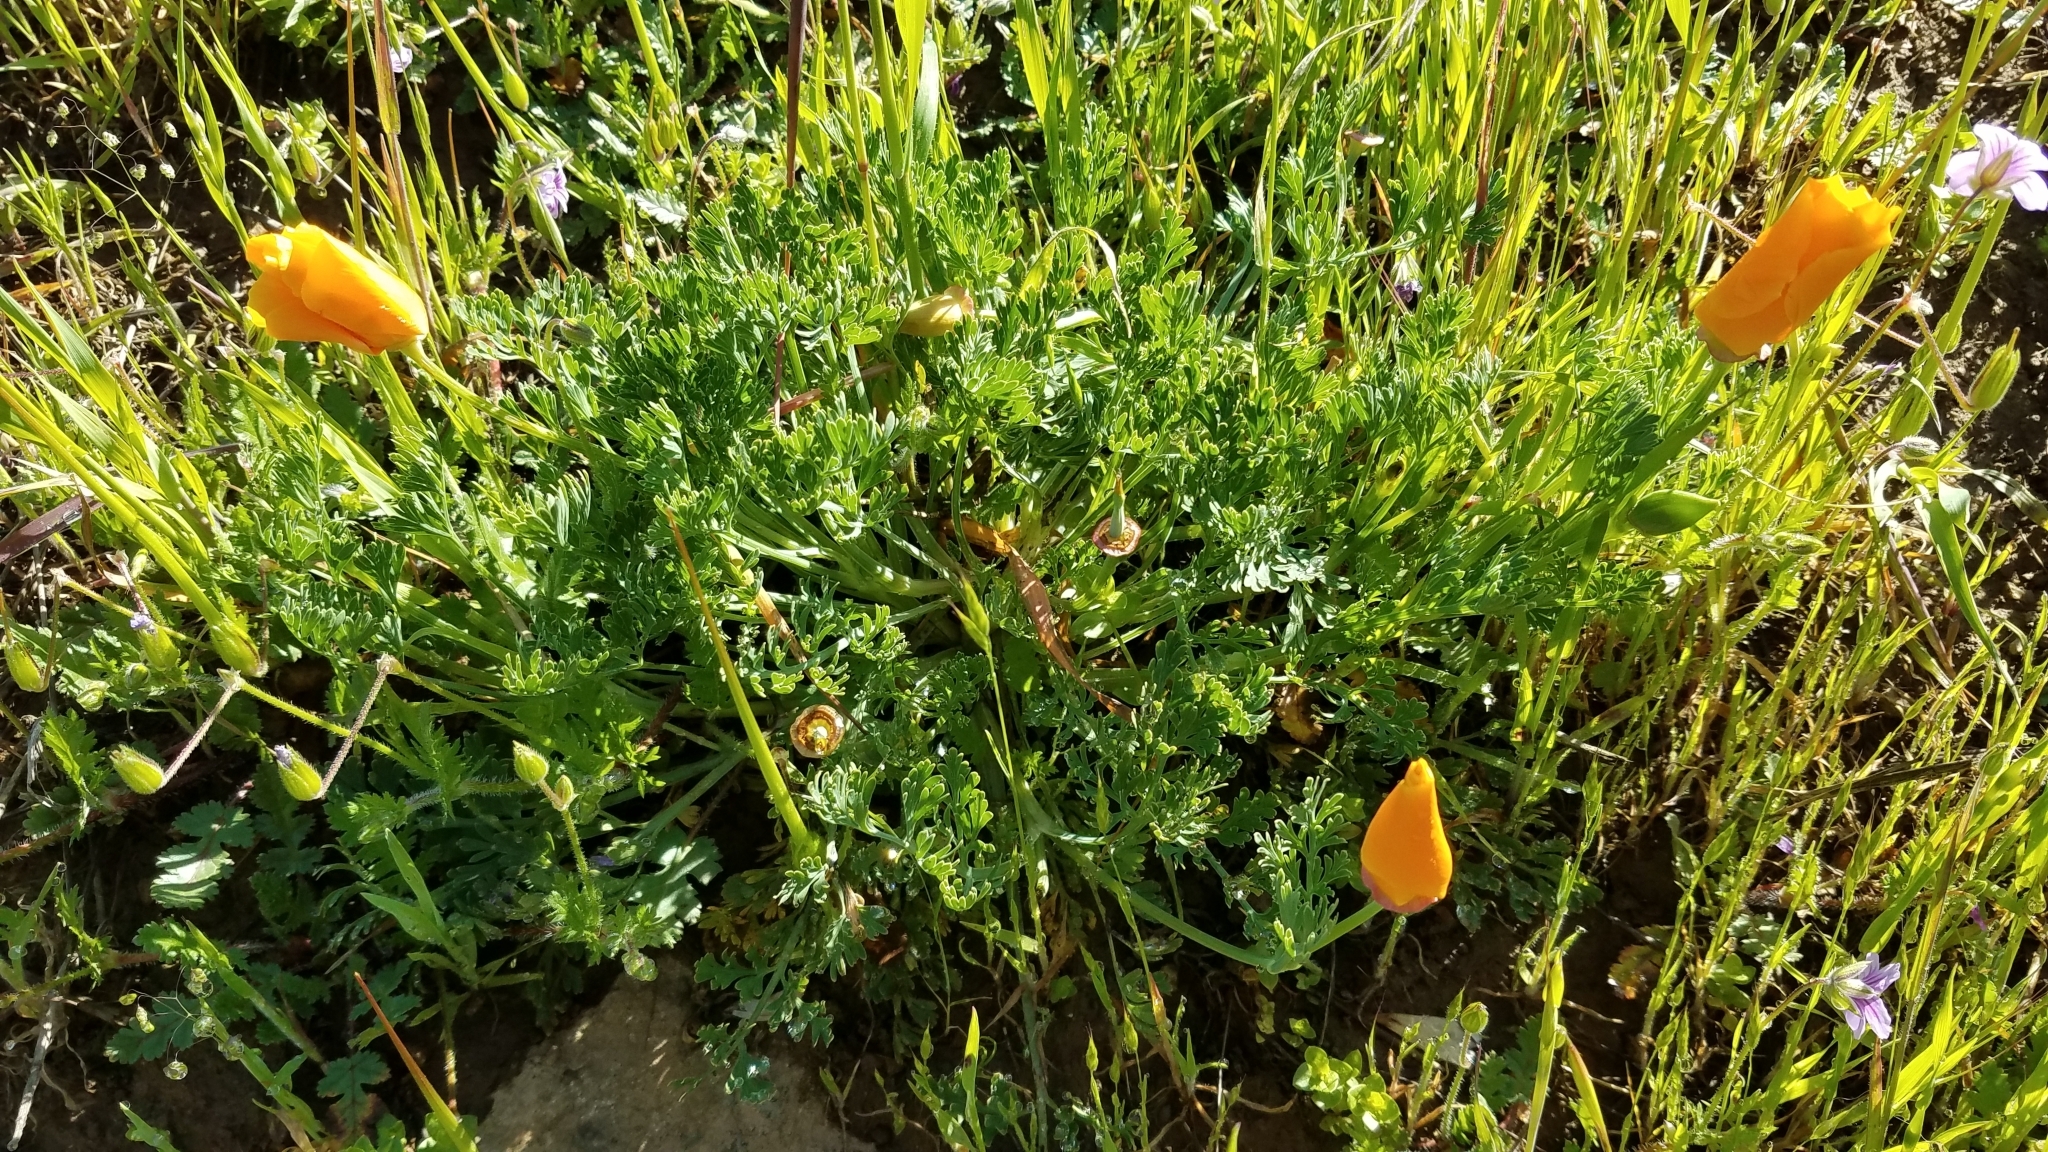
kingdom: Plantae
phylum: Tracheophyta
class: Magnoliopsida
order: Ranunculales
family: Papaveraceae
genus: Eschscholzia
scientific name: Eschscholzia californica
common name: California poppy
